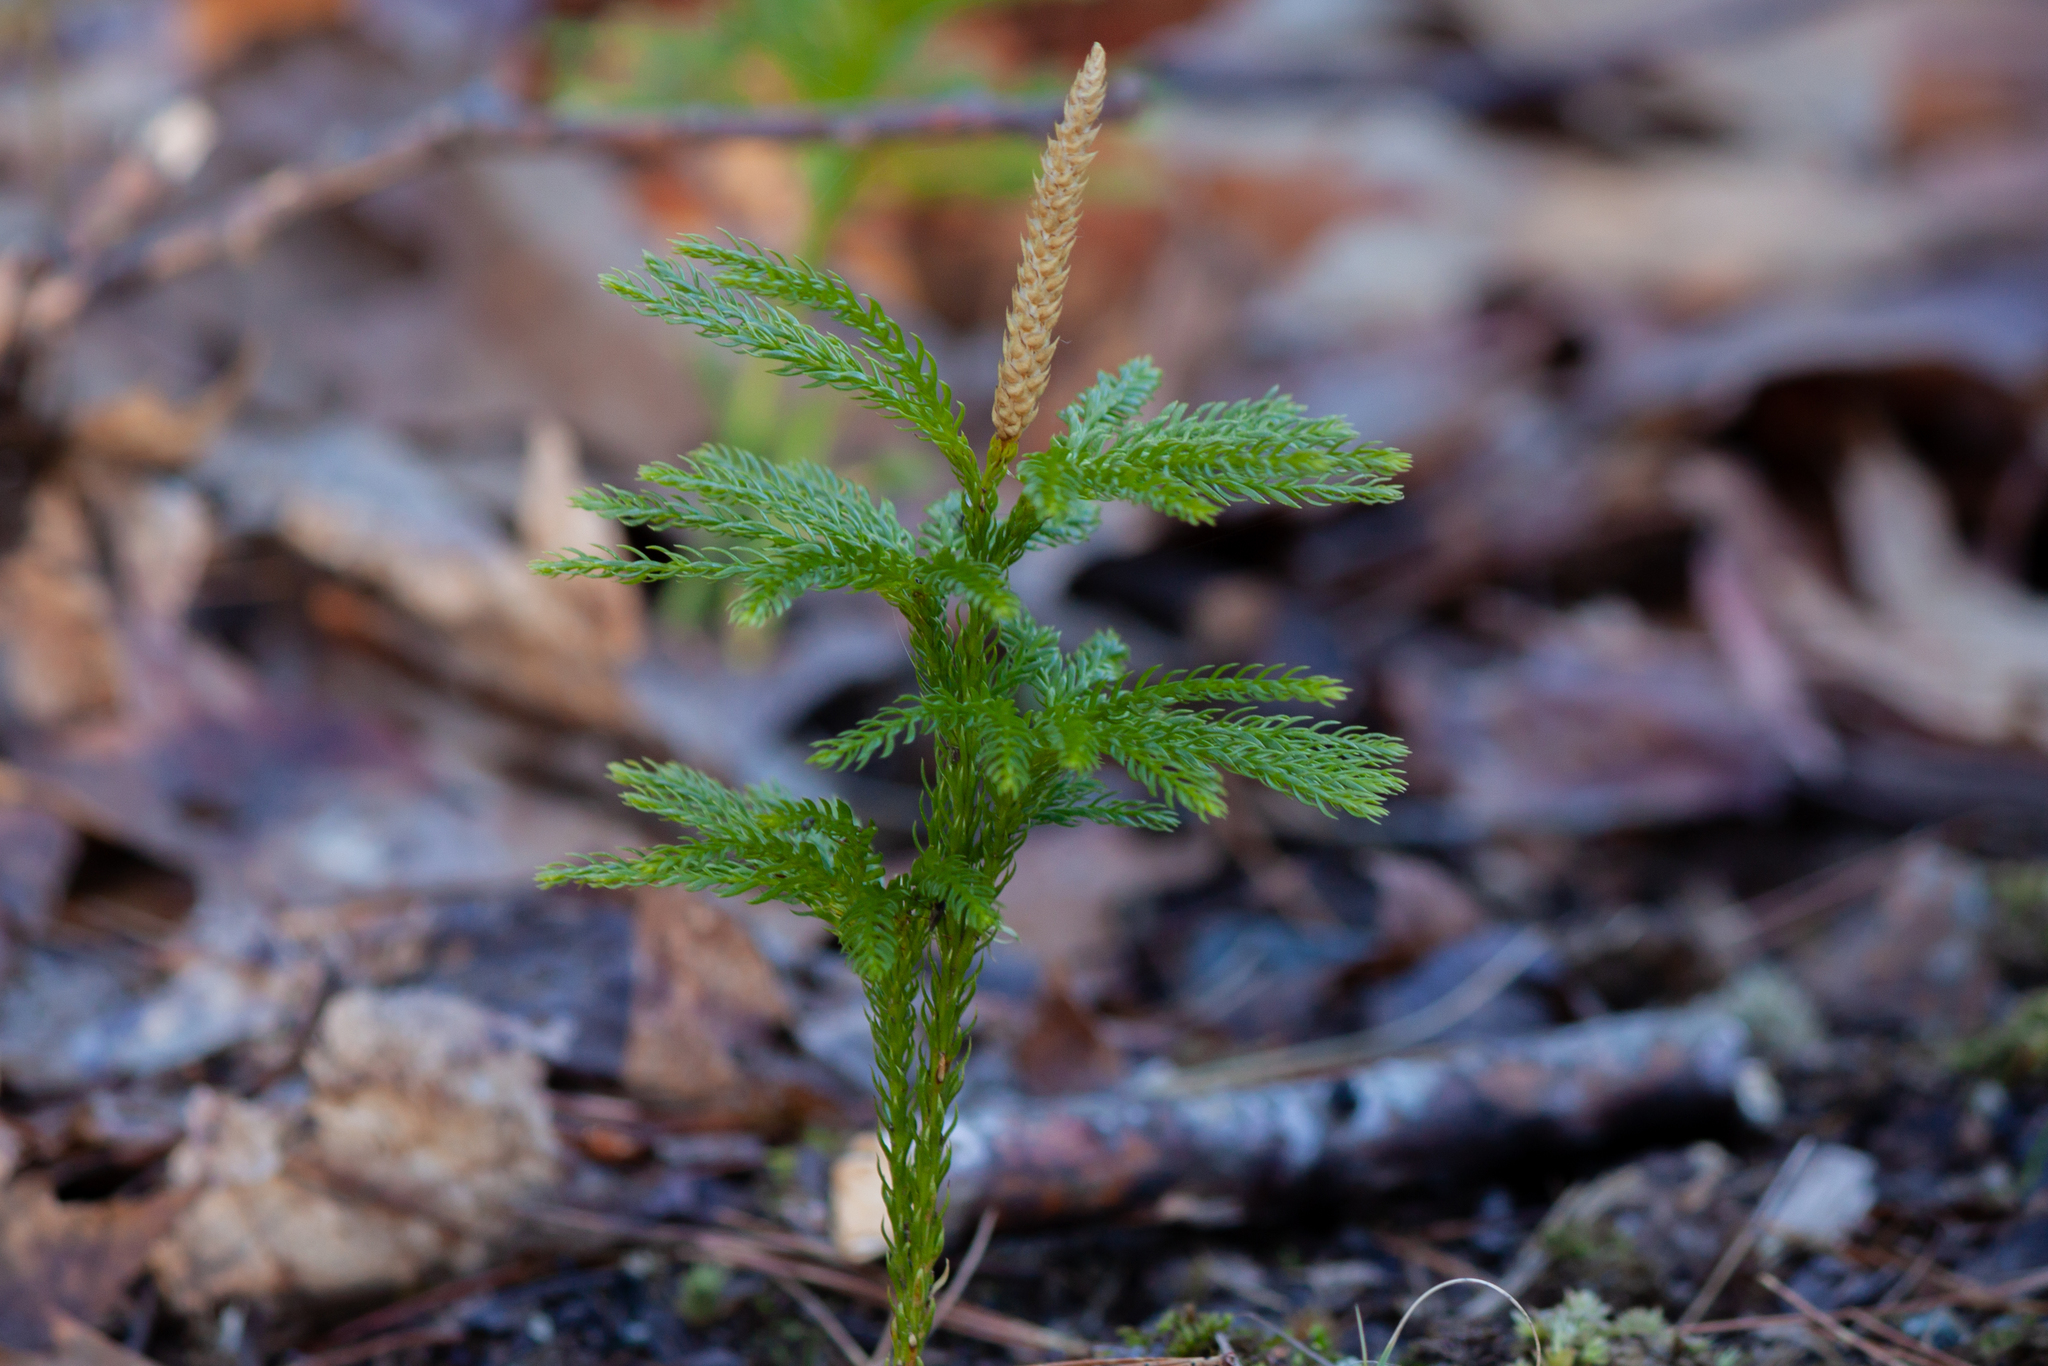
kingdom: Plantae
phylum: Tracheophyta
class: Lycopodiopsida
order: Lycopodiales
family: Lycopodiaceae
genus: Dendrolycopodium
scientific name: Dendrolycopodium obscurum
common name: Common ground-pine
